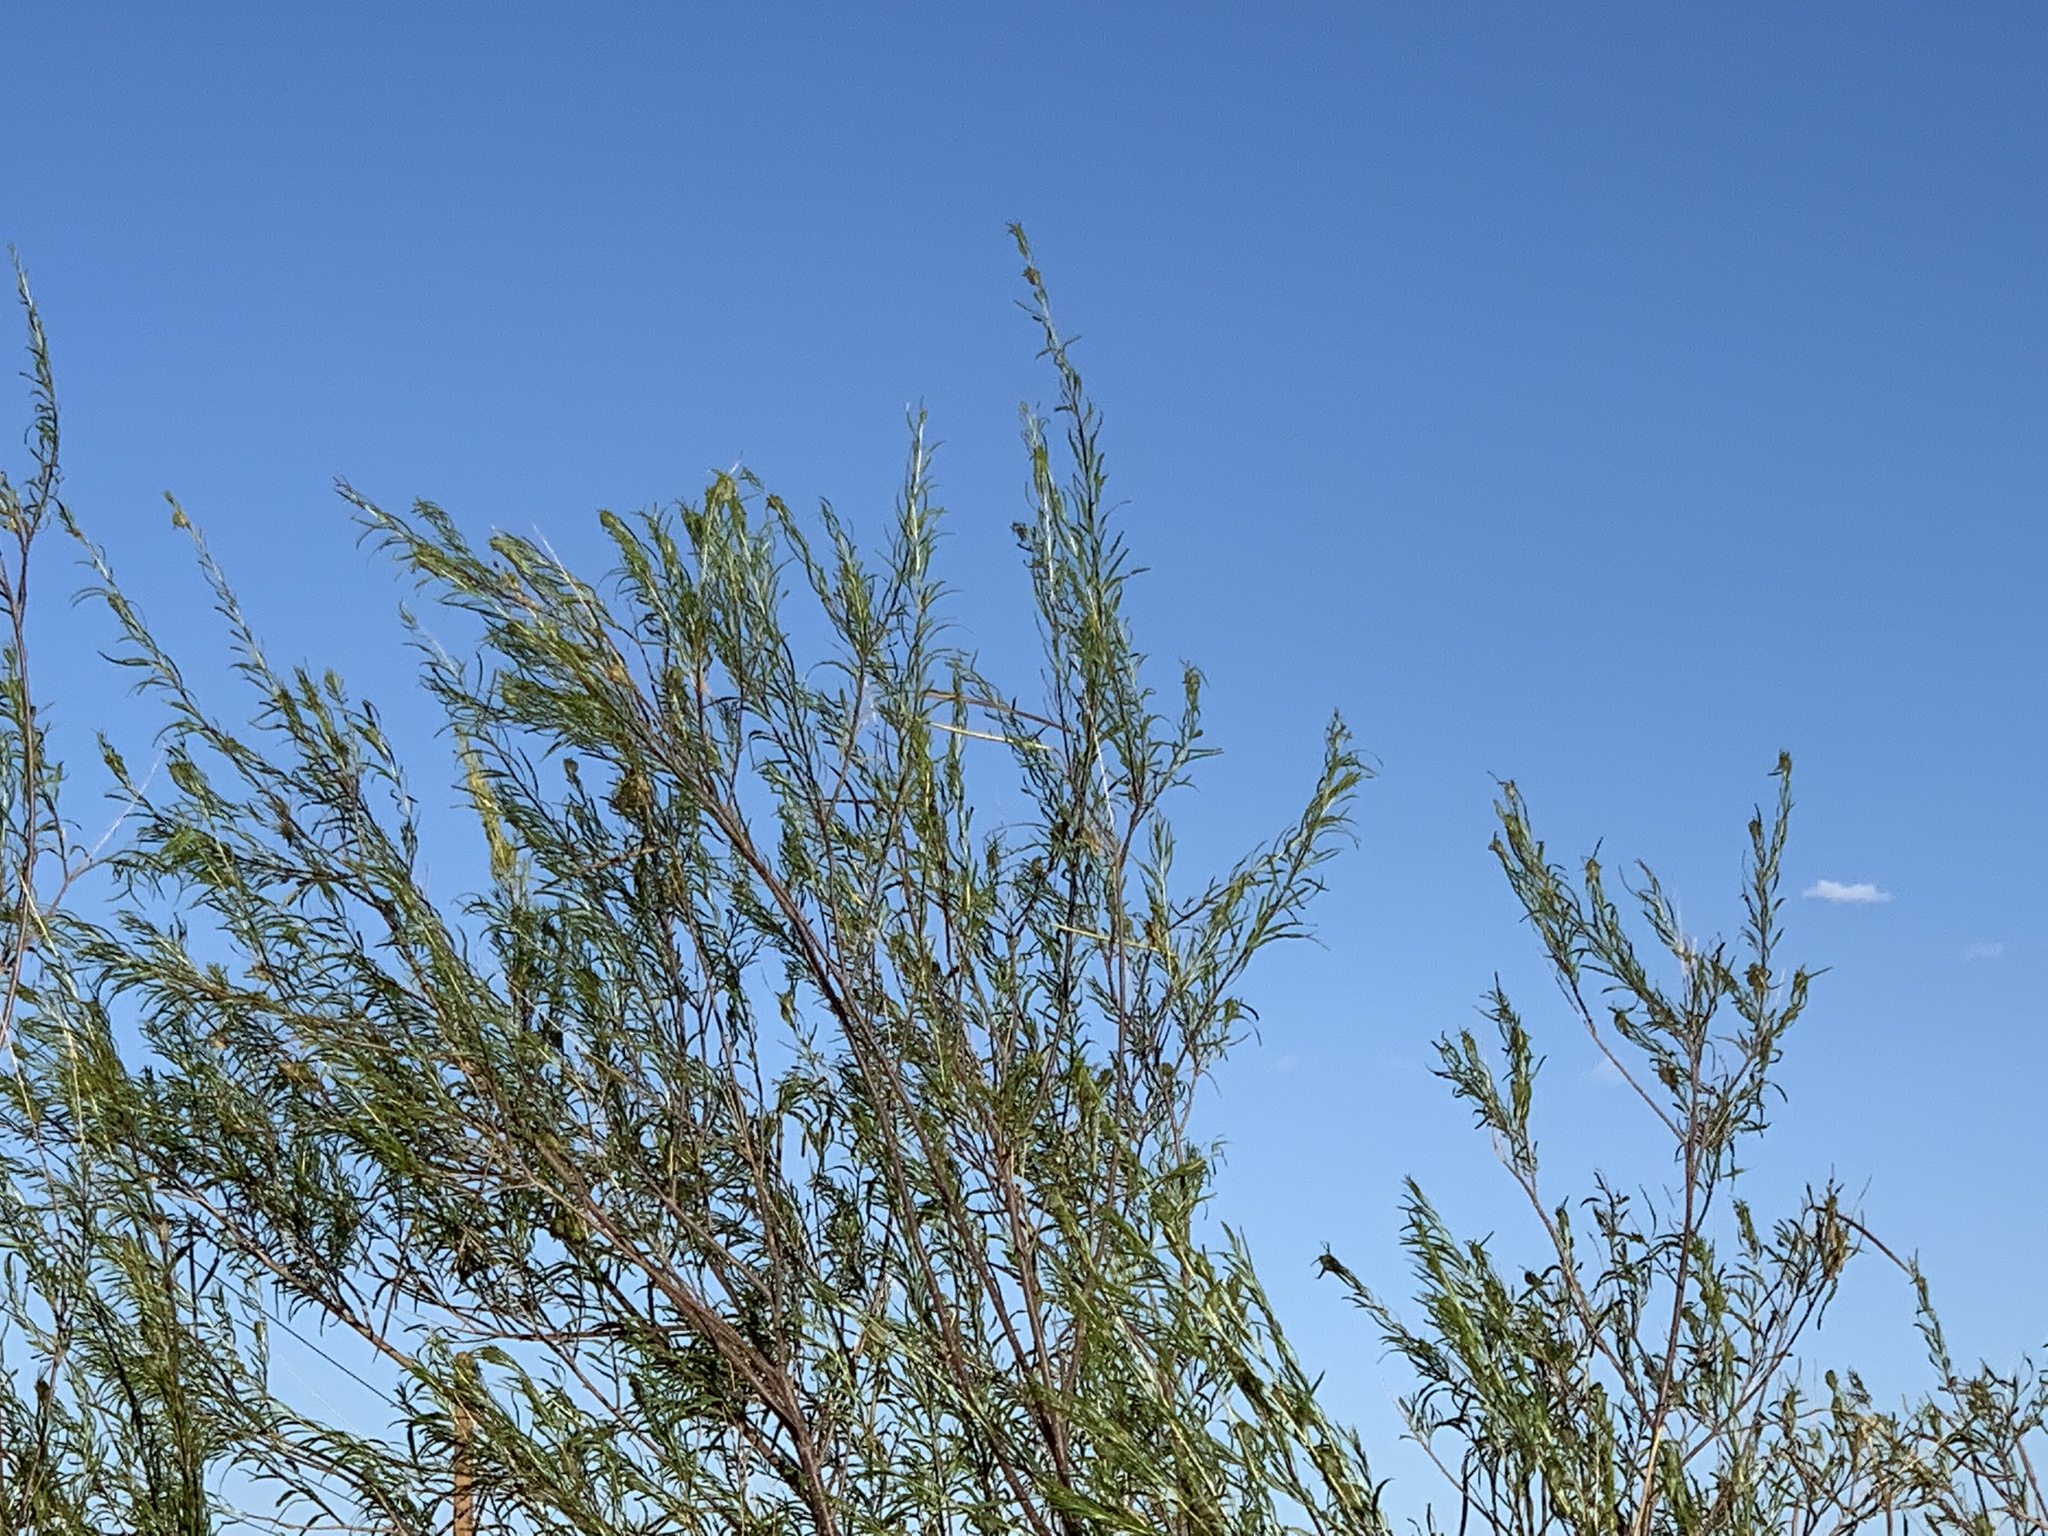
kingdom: Plantae
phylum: Tracheophyta
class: Magnoliopsida
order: Lamiales
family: Bignoniaceae
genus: Chilopsis
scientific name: Chilopsis linearis
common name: Desert-willow
